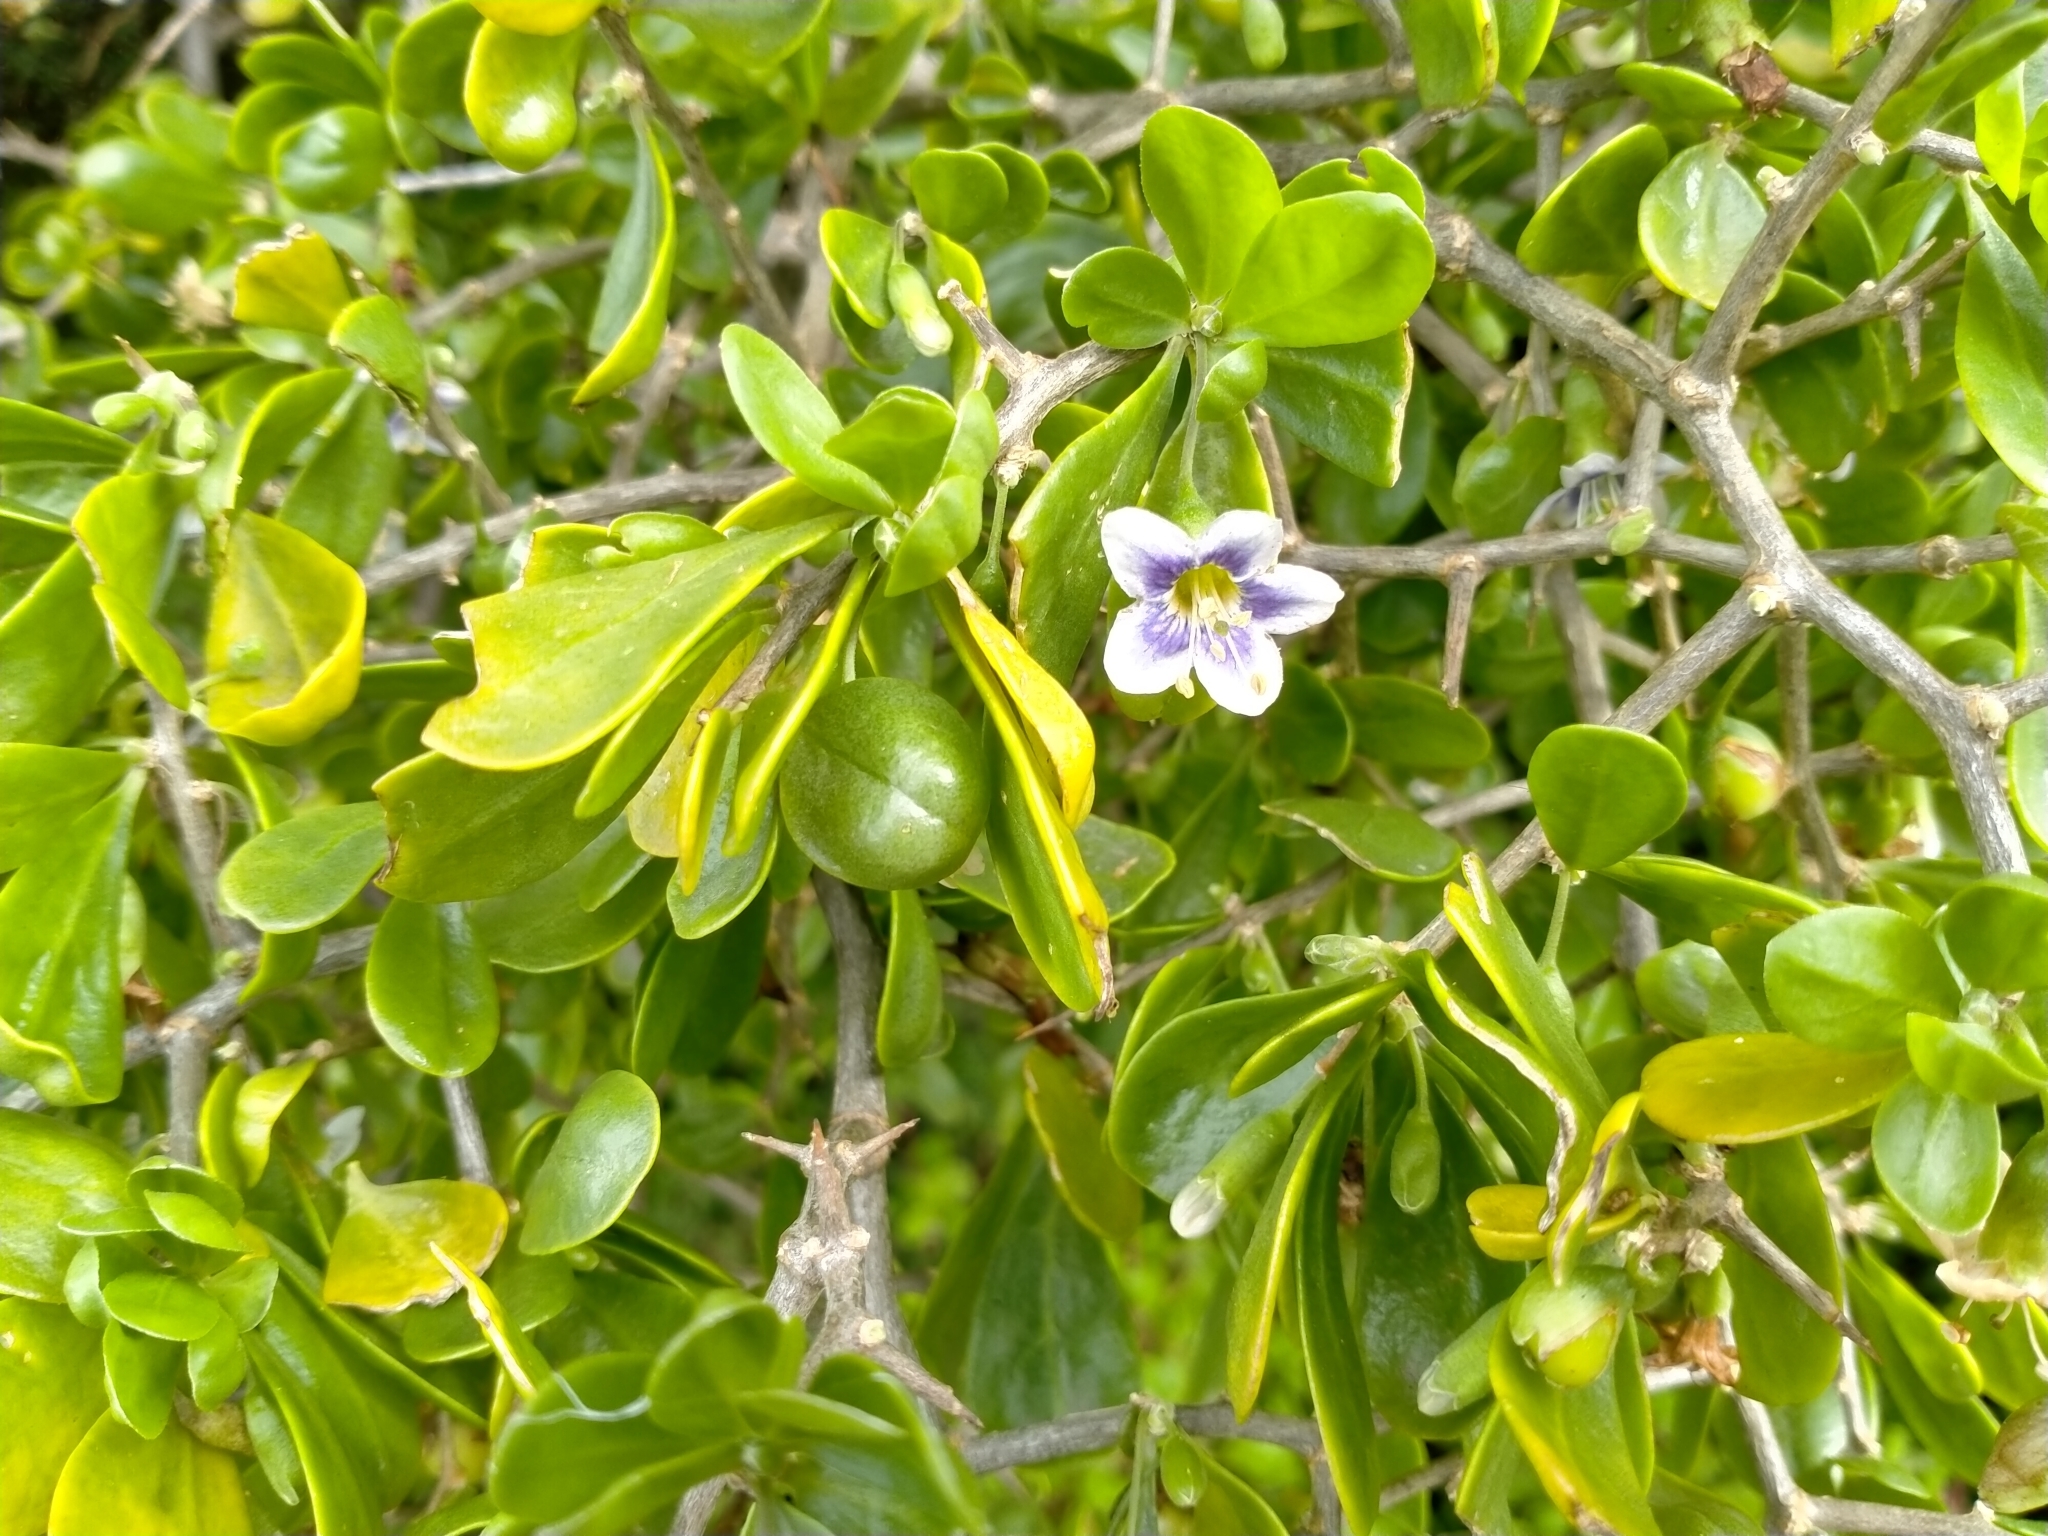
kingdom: Plantae
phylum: Tracheophyta
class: Magnoliopsida
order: Solanales
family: Solanaceae
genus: Lycium
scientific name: Lycium ferocissimum
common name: African boxthorn
